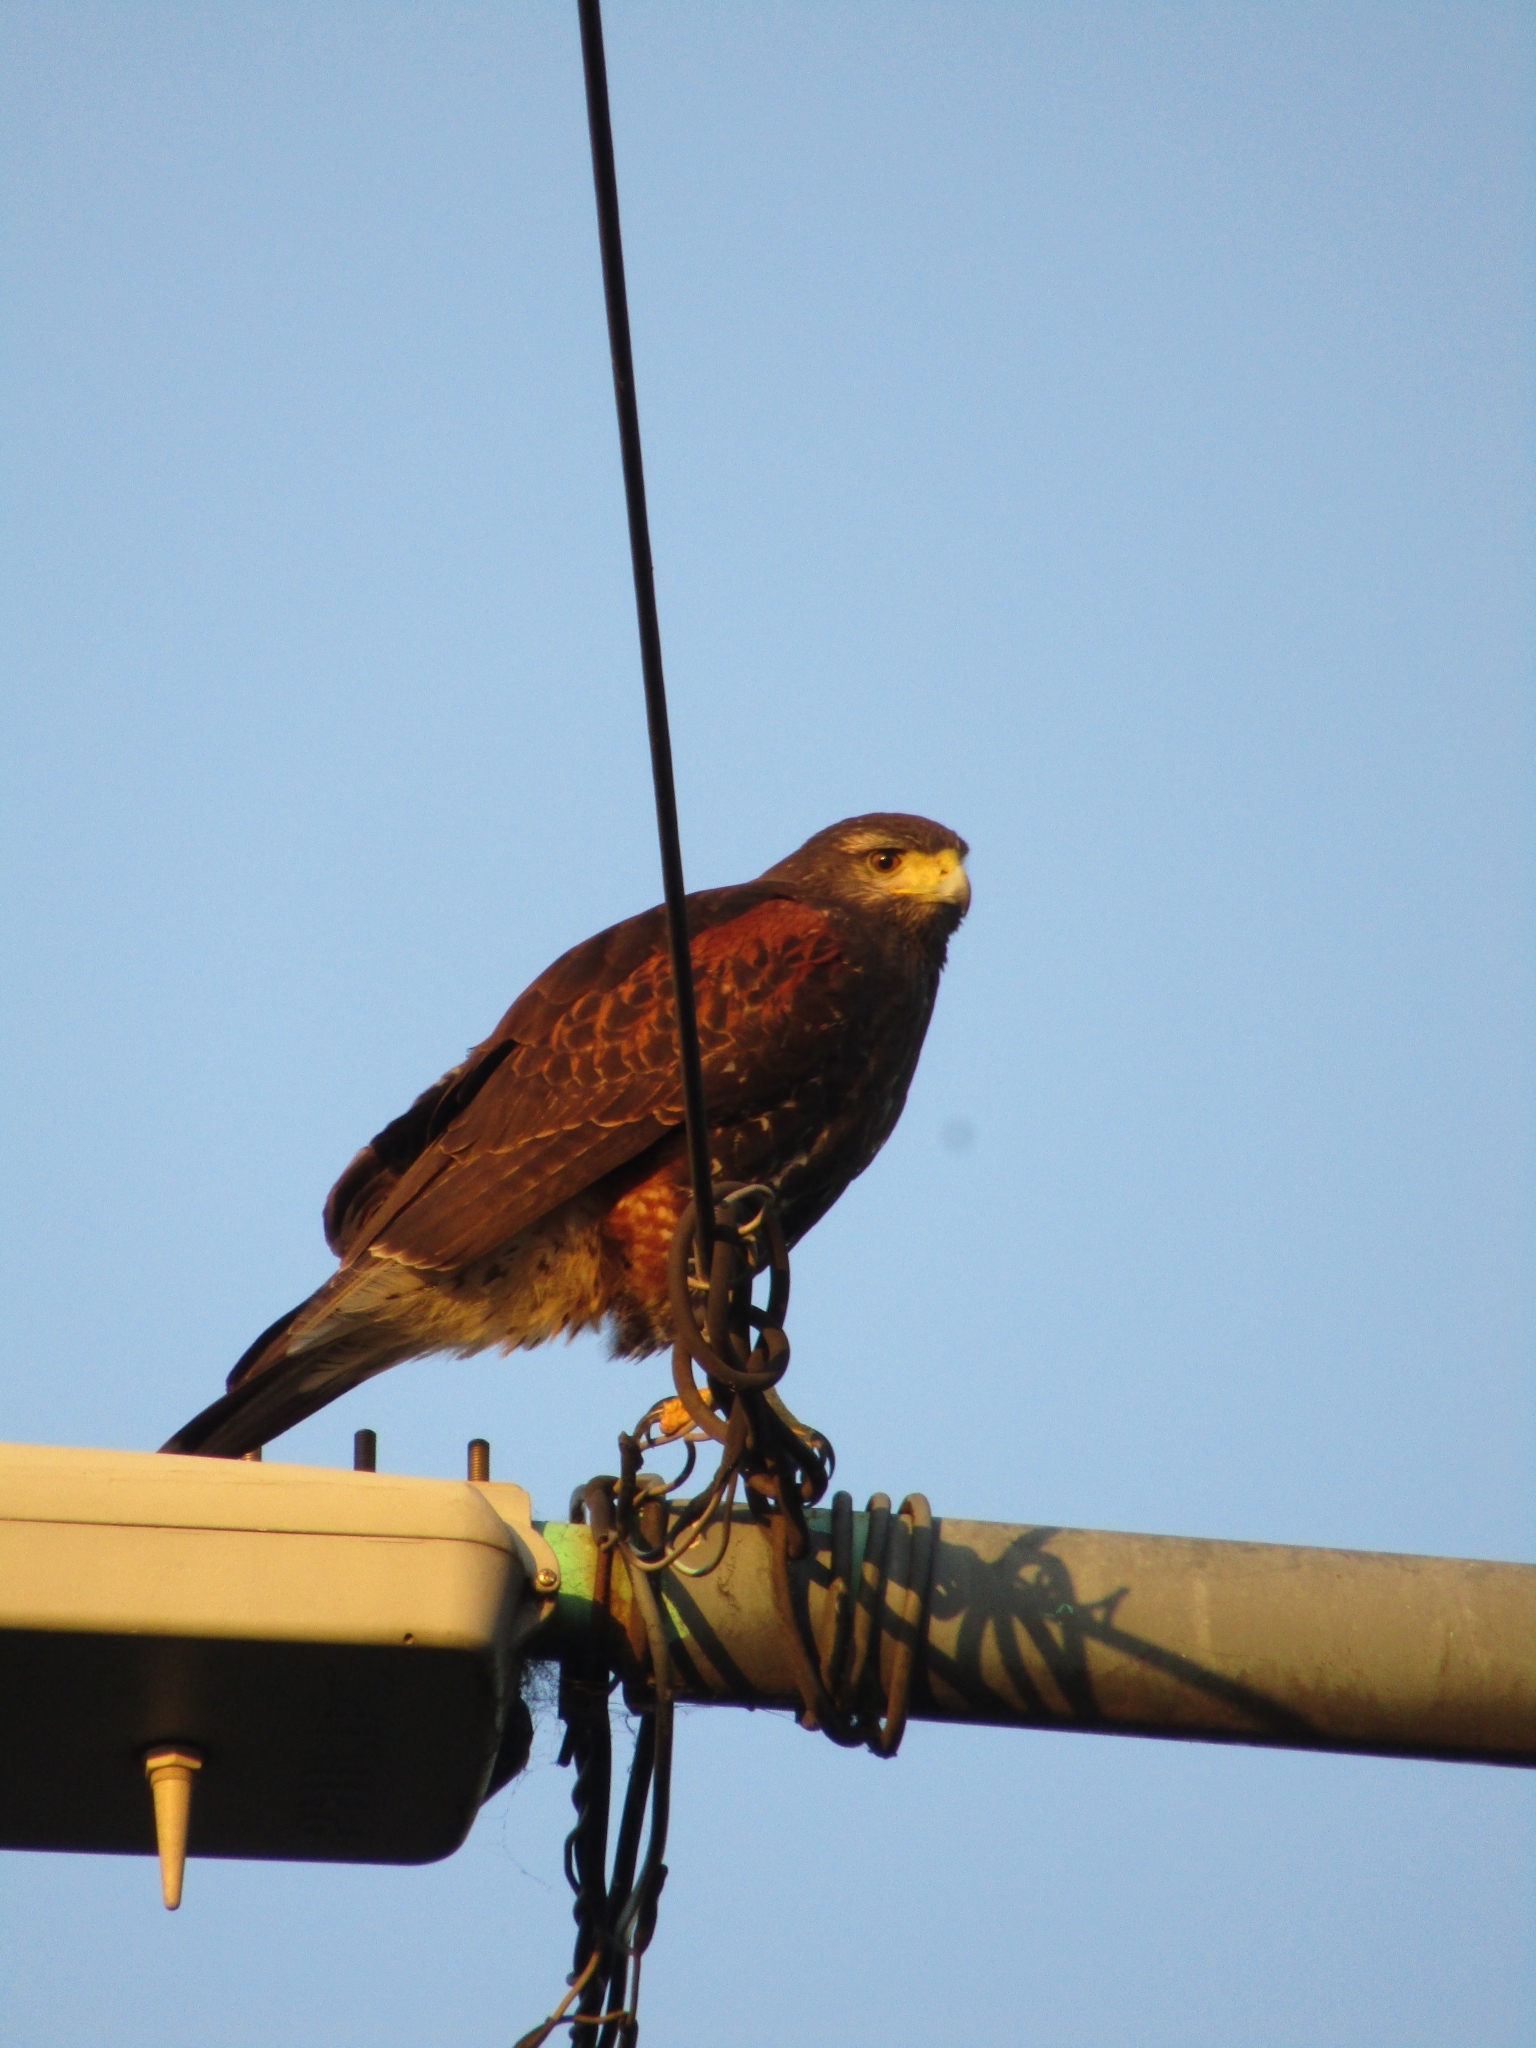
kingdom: Animalia
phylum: Chordata
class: Aves
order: Accipitriformes
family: Accipitridae
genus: Parabuteo
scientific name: Parabuteo unicinctus
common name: Harris's hawk
